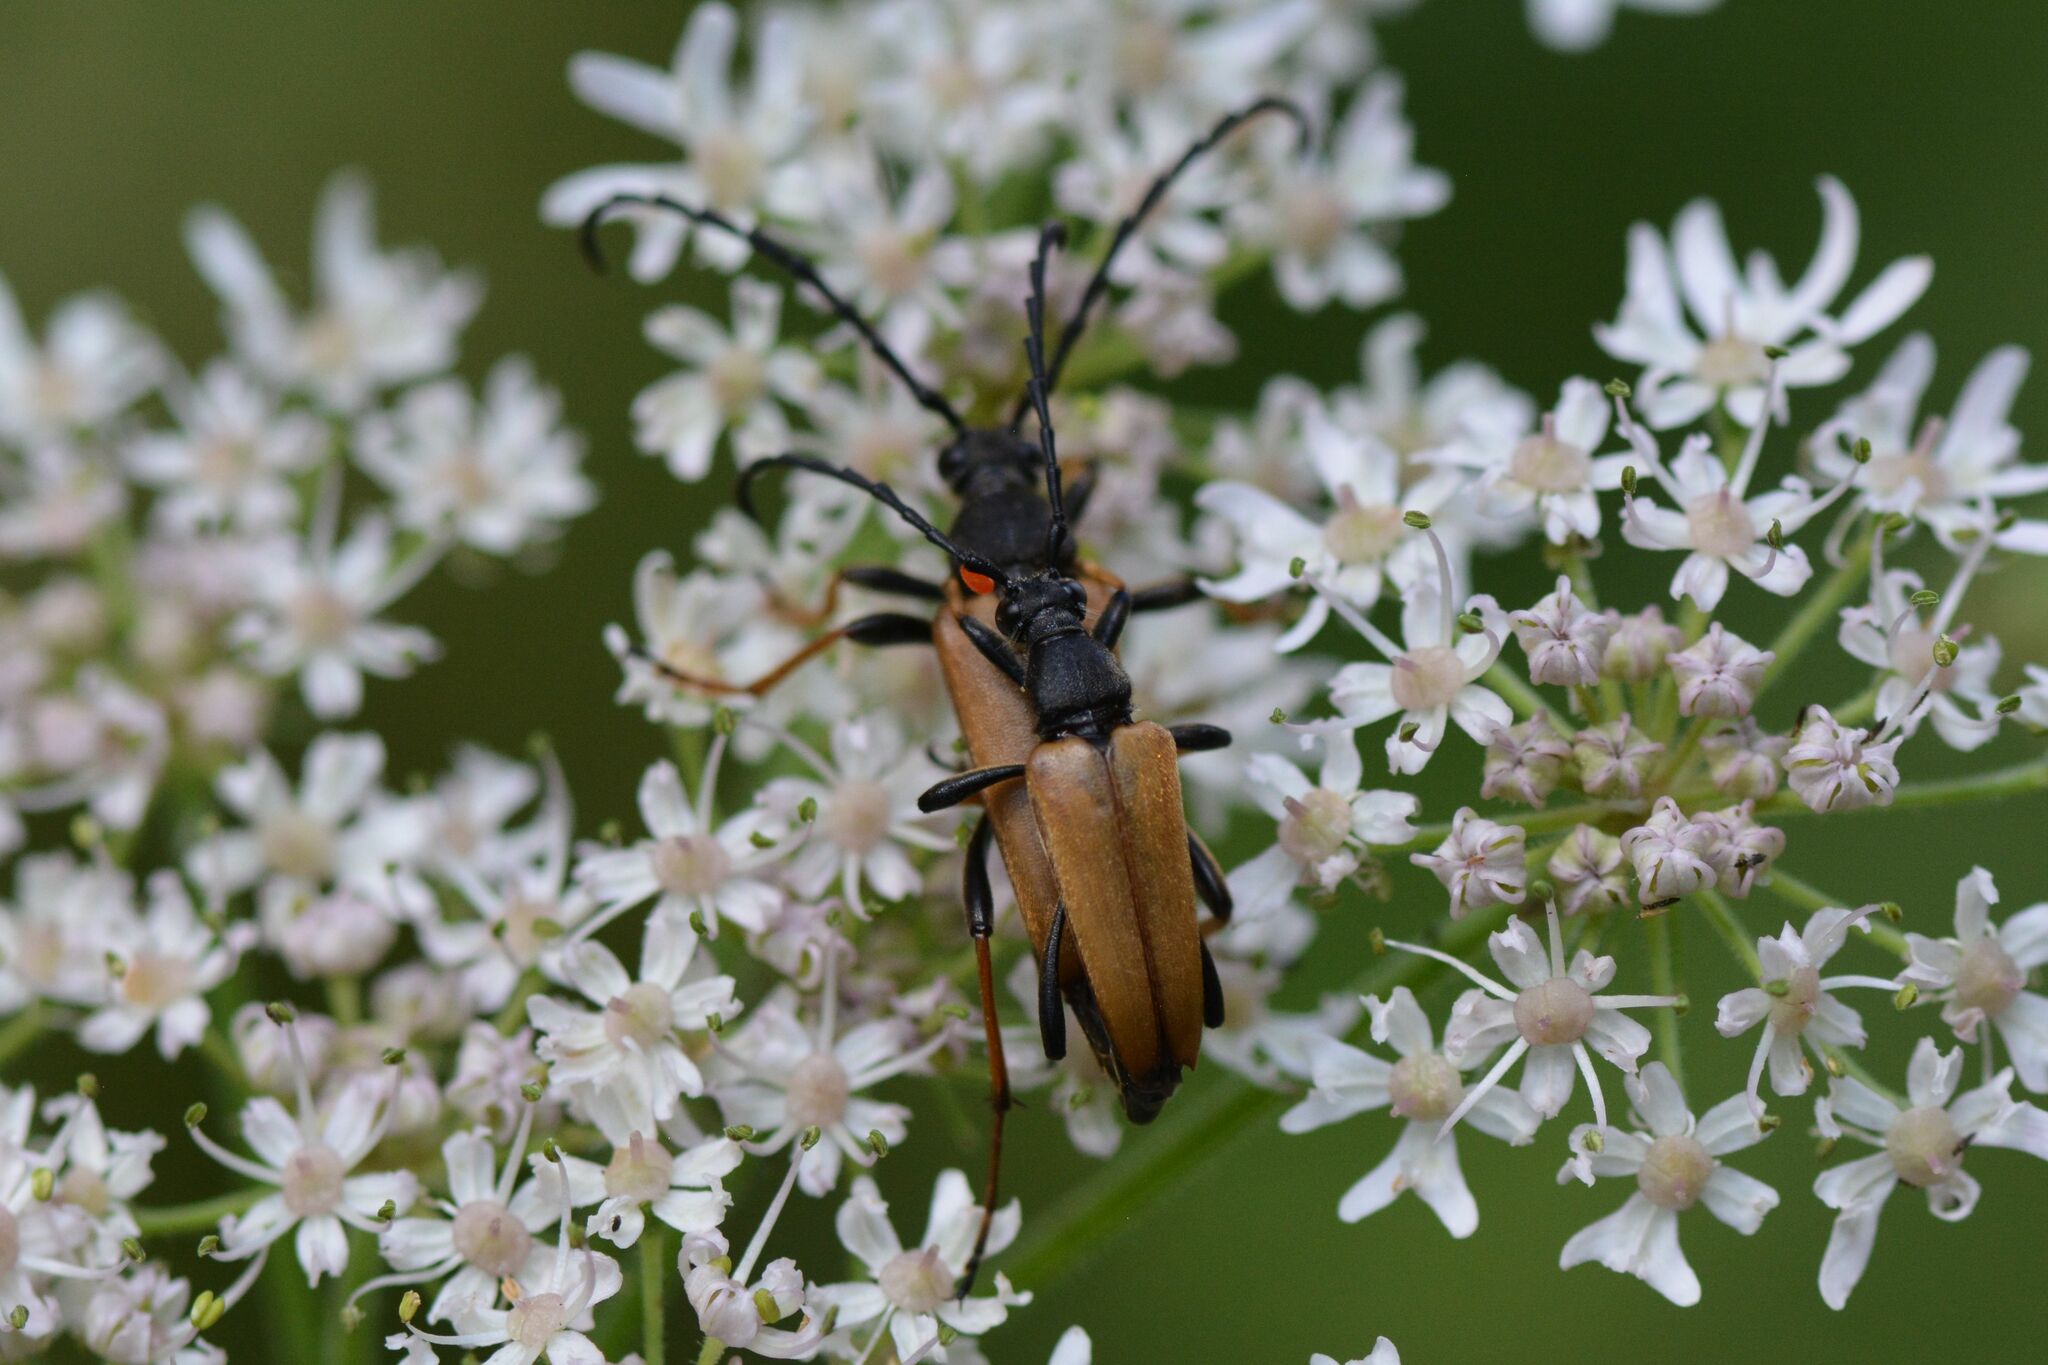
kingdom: Animalia
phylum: Arthropoda
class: Insecta
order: Coleoptera
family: Cerambycidae
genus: Stictoleptura
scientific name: Stictoleptura rubra
